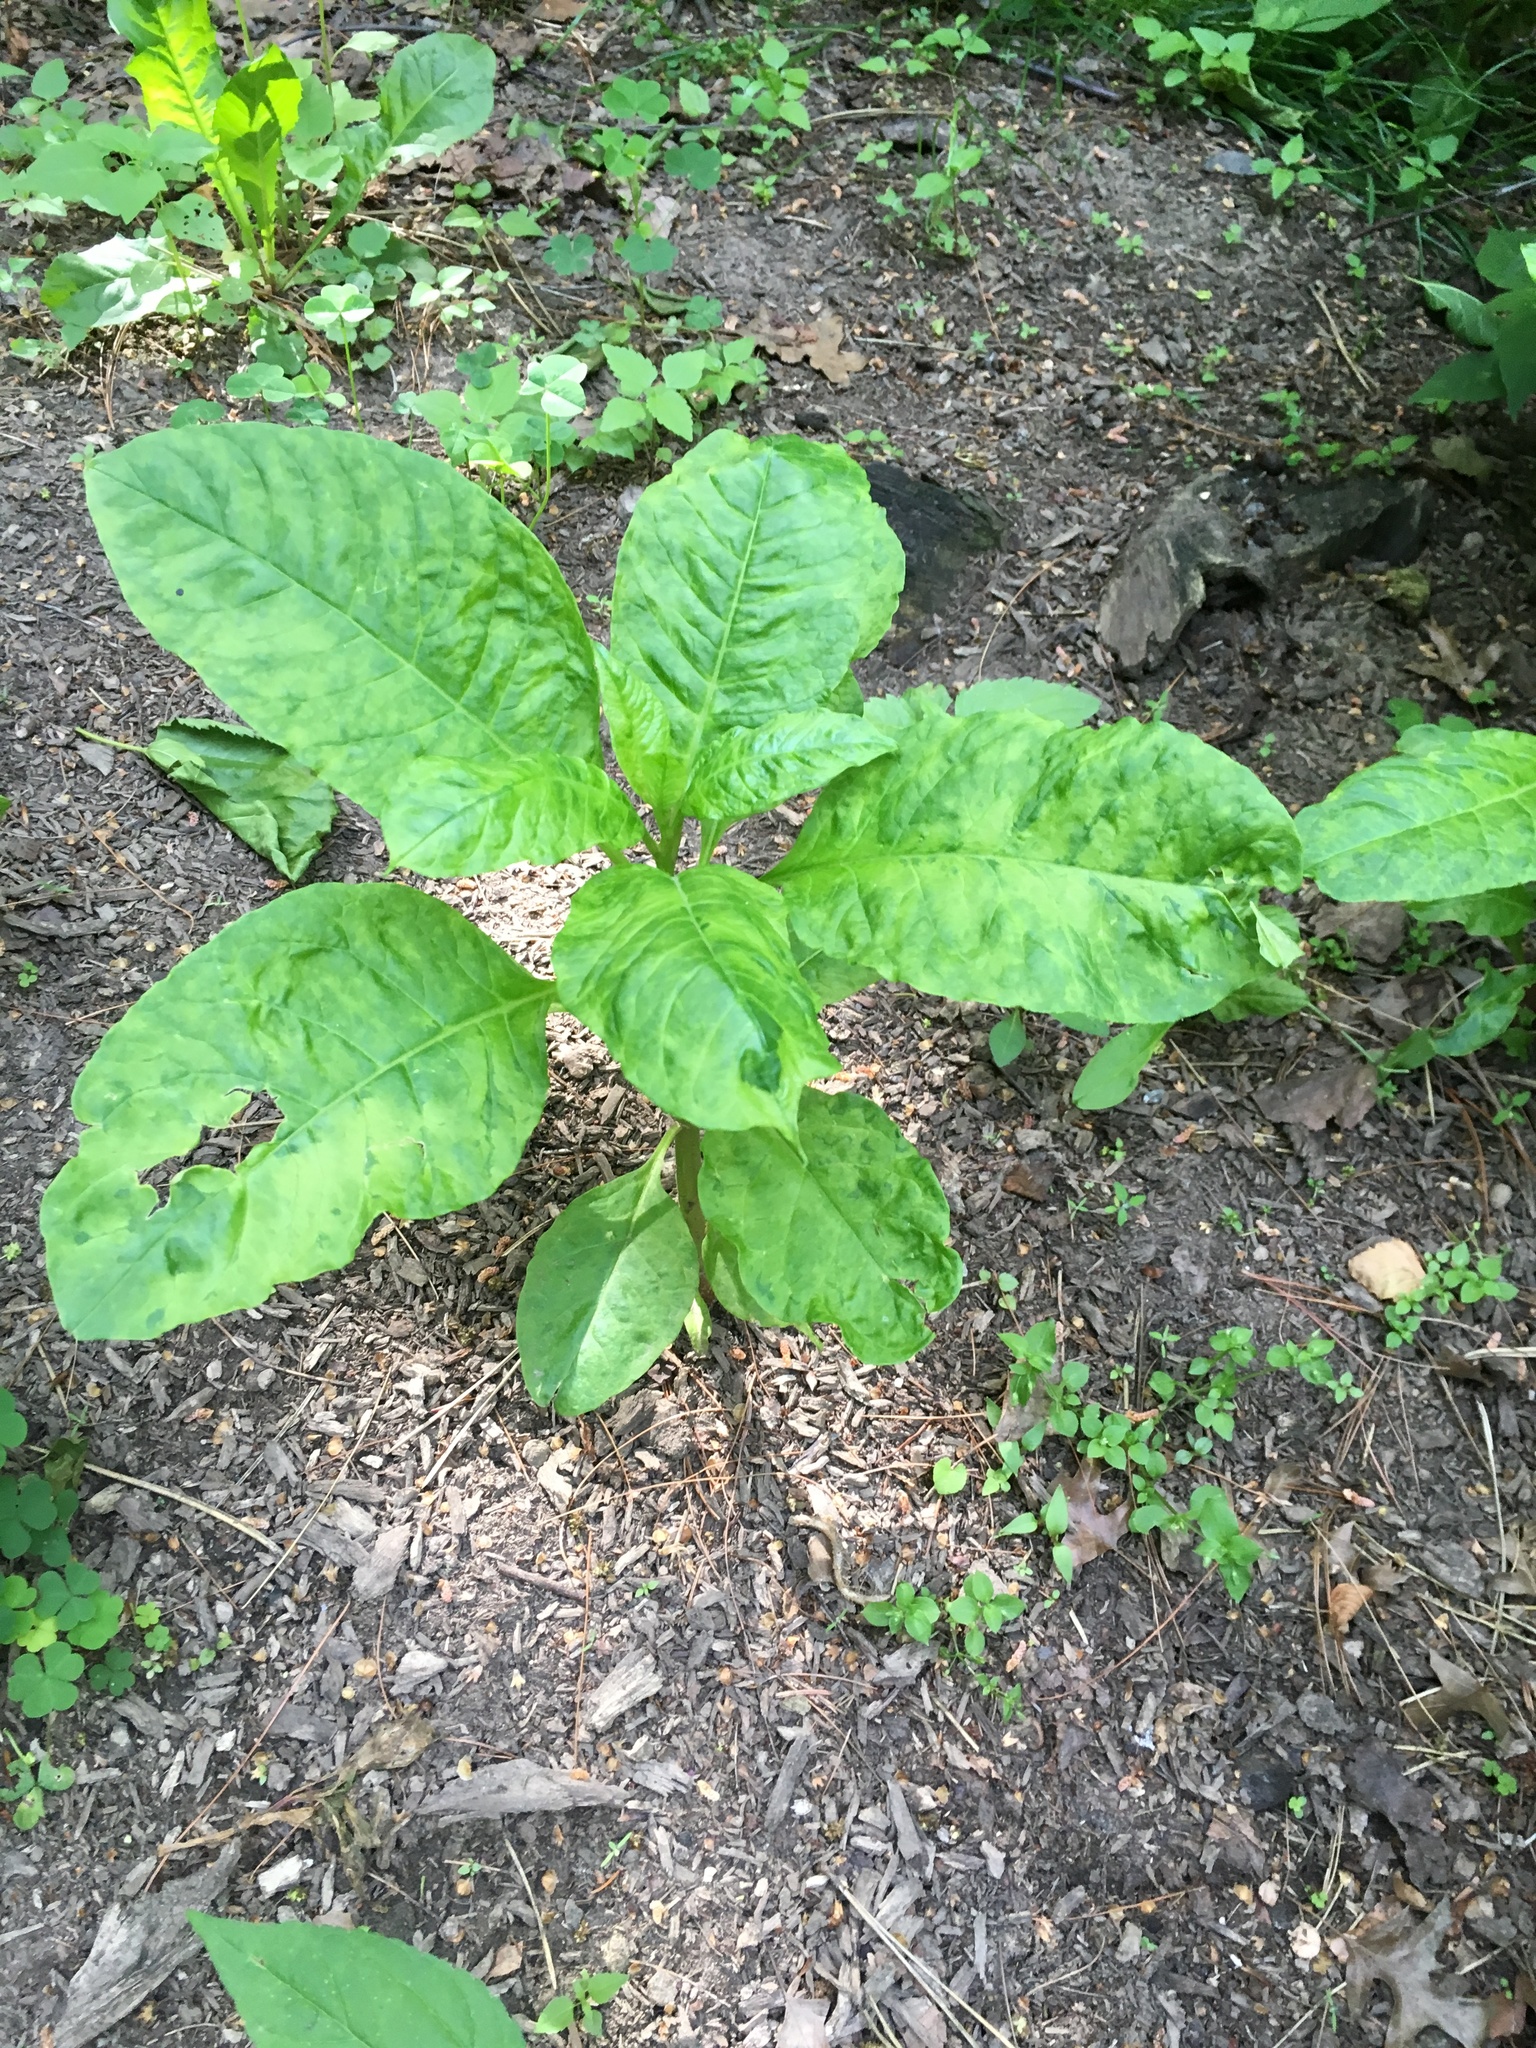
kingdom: Plantae
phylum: Tracheophyta
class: Magnoliopsida
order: Caryophyllales
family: Phytolaccaceae
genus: Phytolacca
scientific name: Phytolacca americana
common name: American pokeweed
